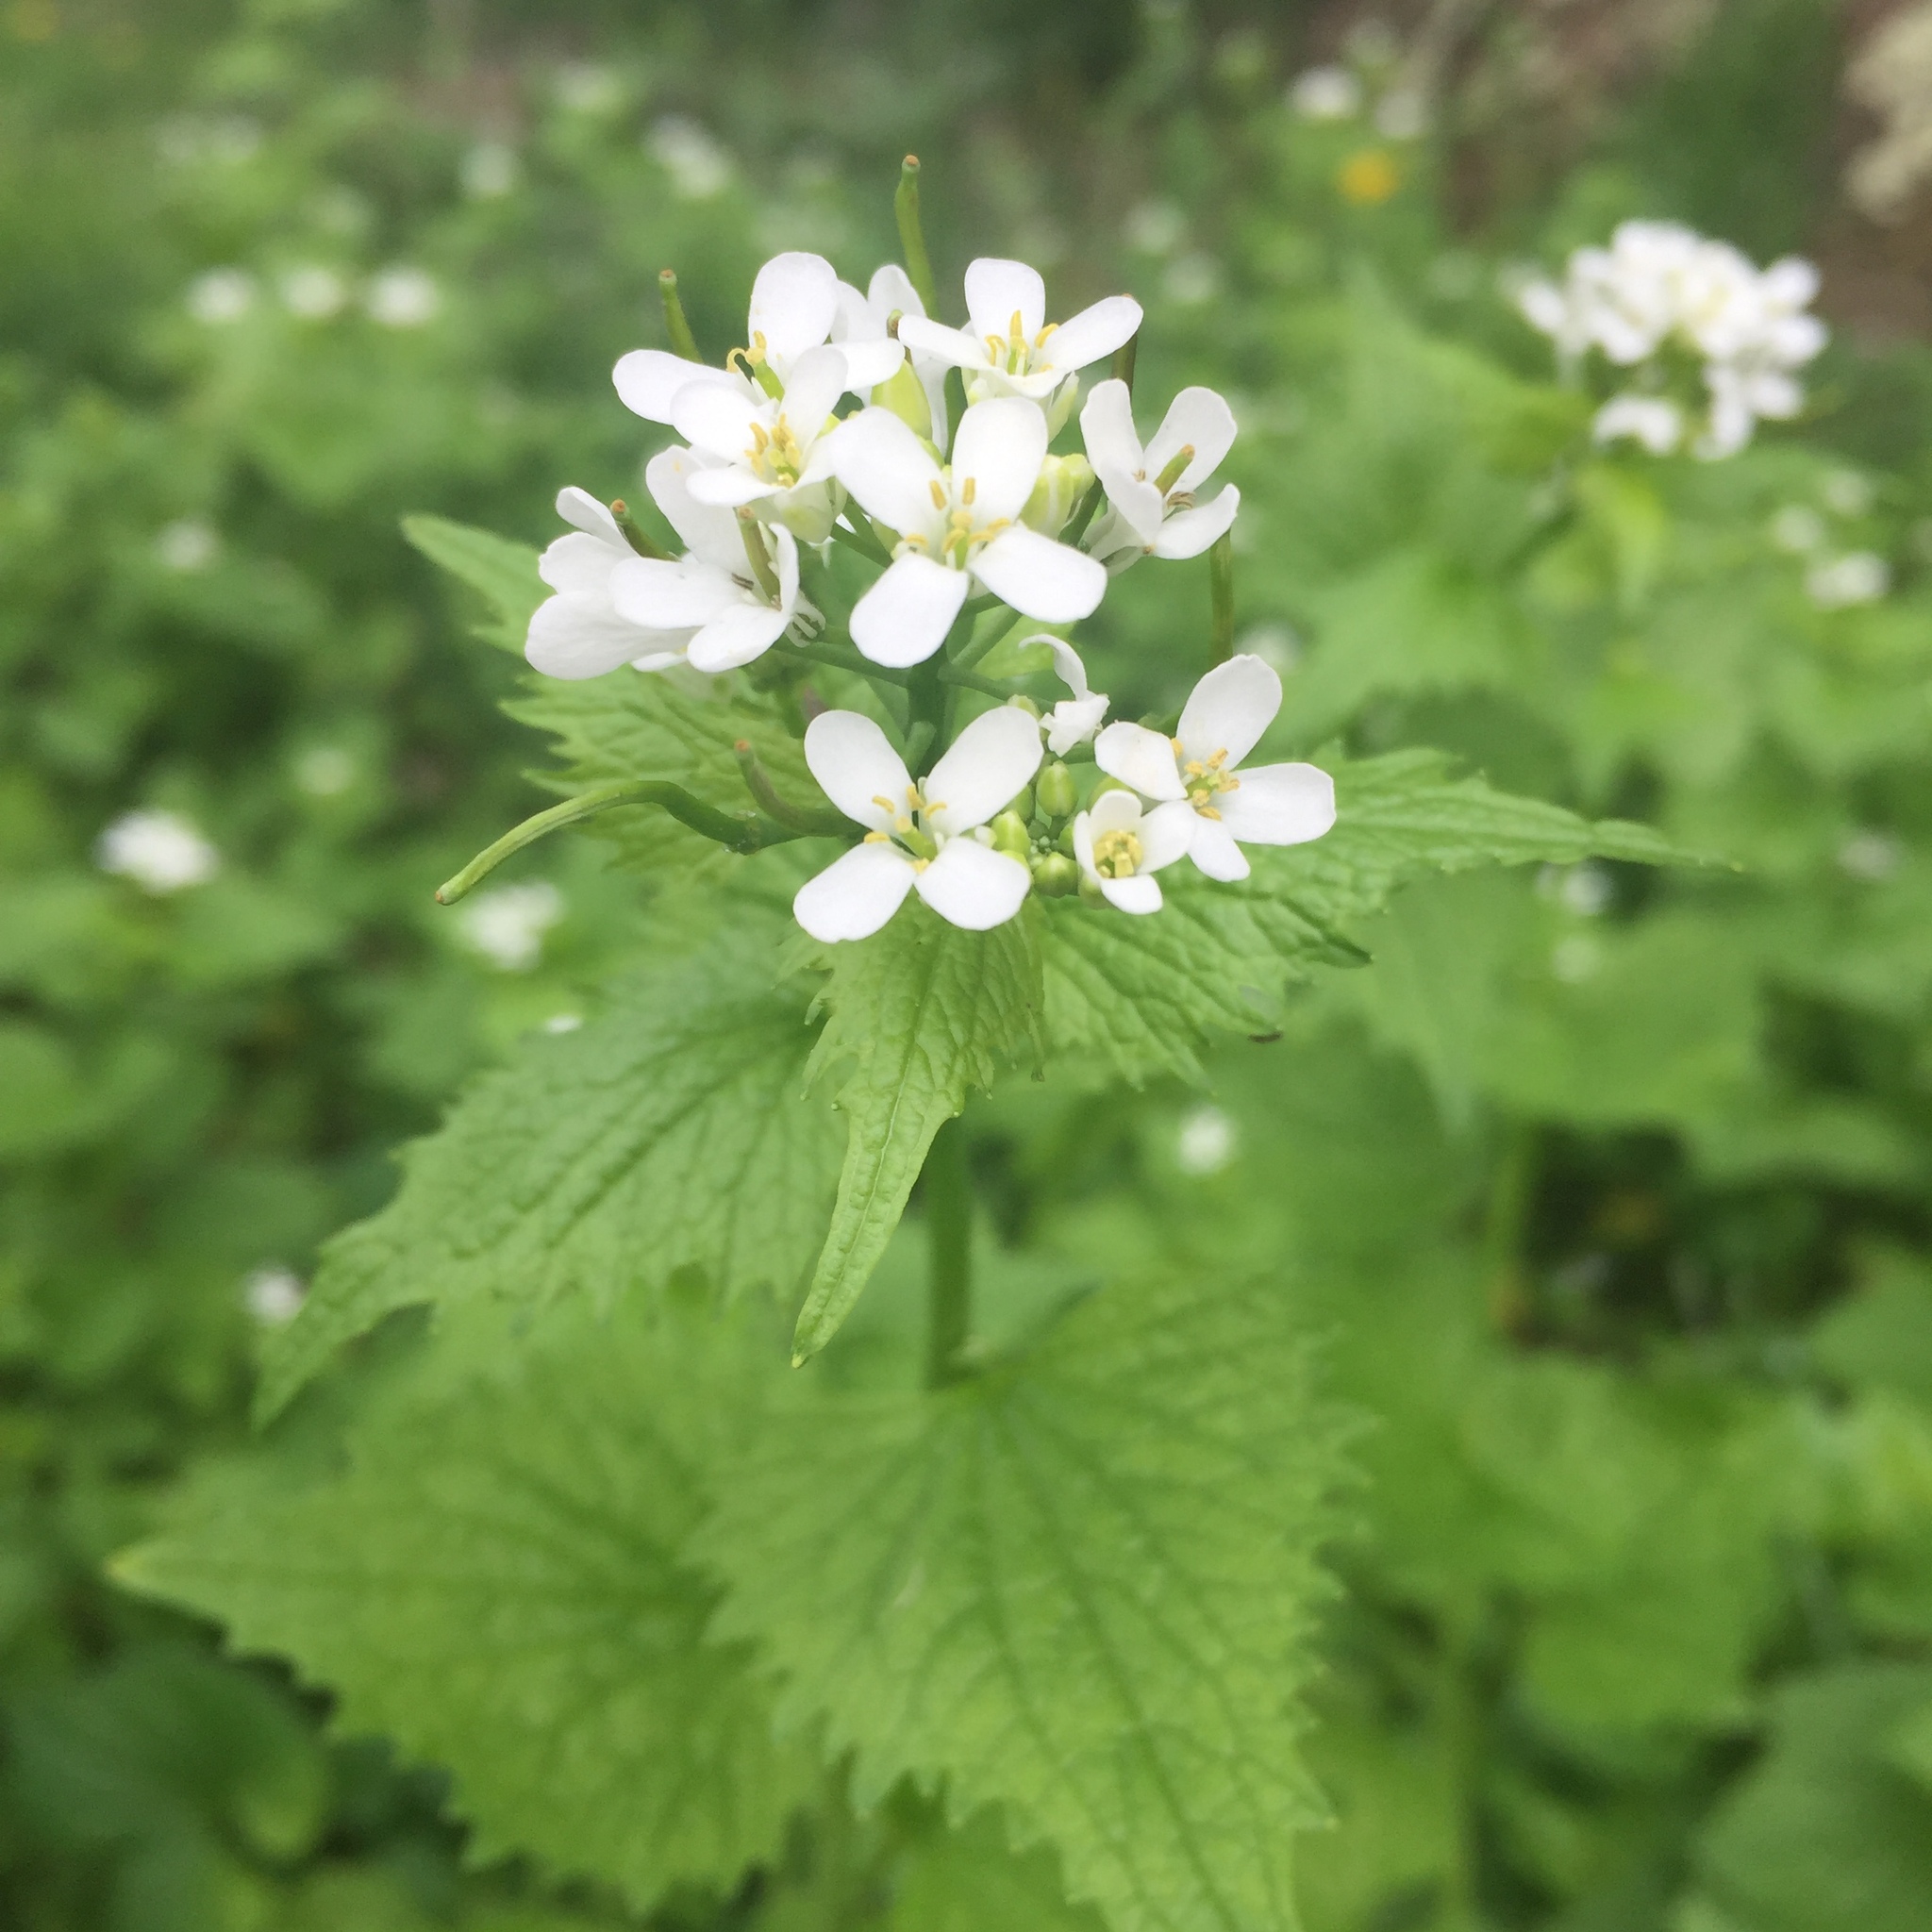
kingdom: Plantae
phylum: Tracheophyta
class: Magnoliopsida
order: Brassicales
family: Brassicaceae
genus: Alliaria
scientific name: Alliaria petiolata
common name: Garlic mustard
